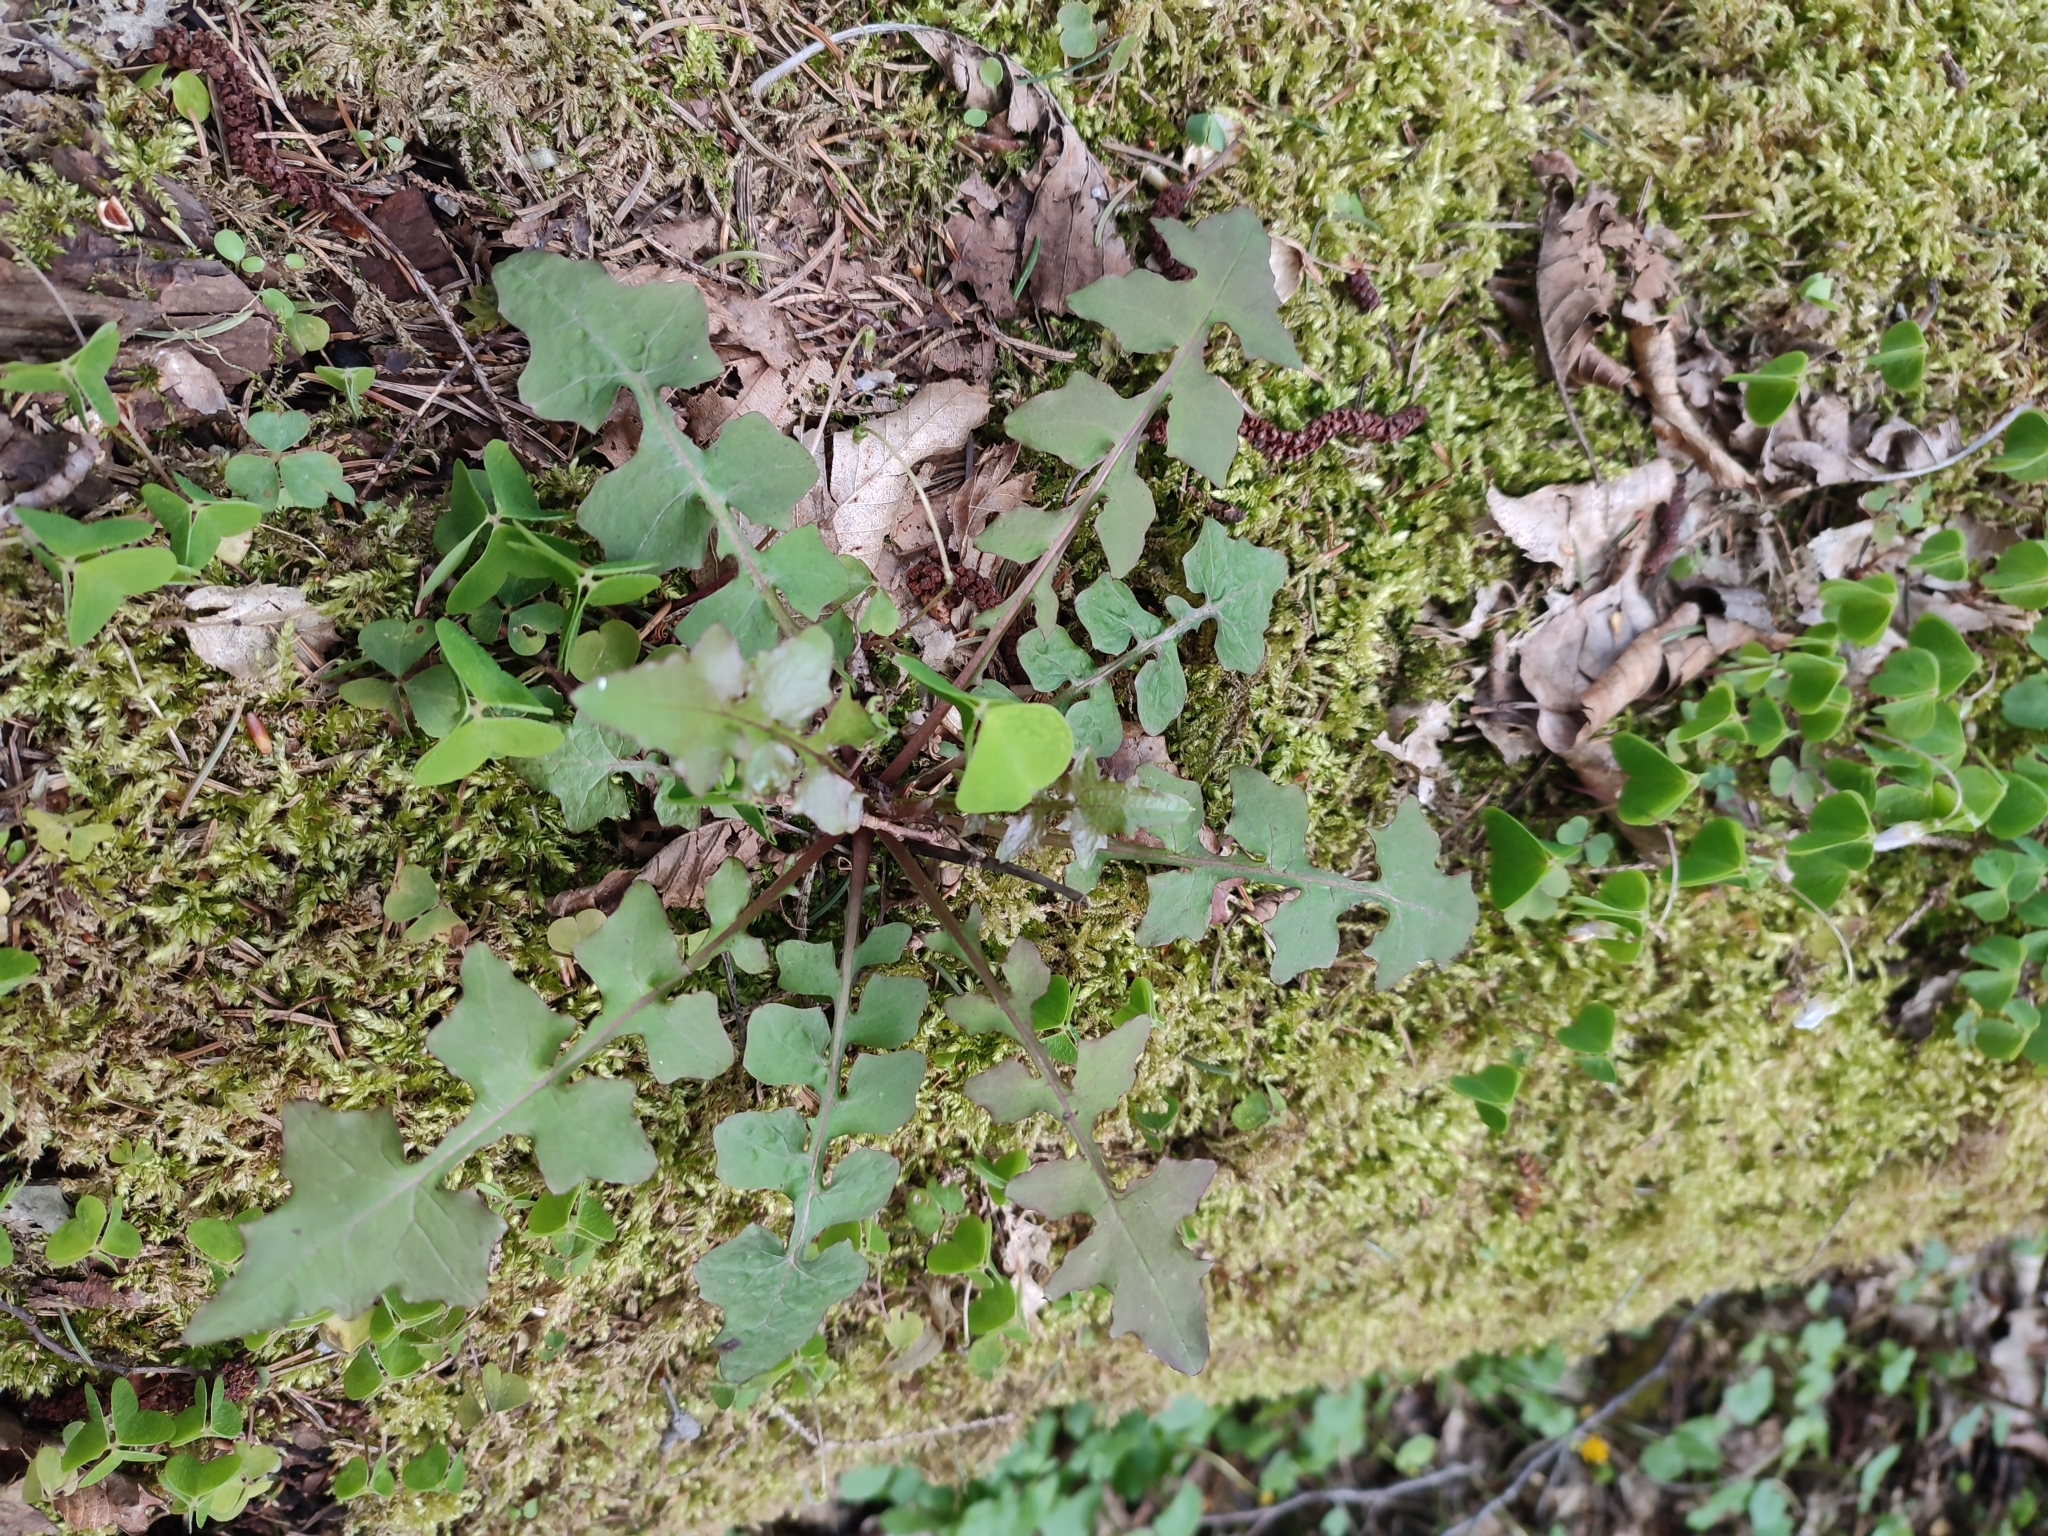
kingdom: Plantae
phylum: Tracheophyta
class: Magnoliopsida
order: Asterales
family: Asteraceae
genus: Mycelis
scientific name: Mycelis muralis
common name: Wall lettuce
